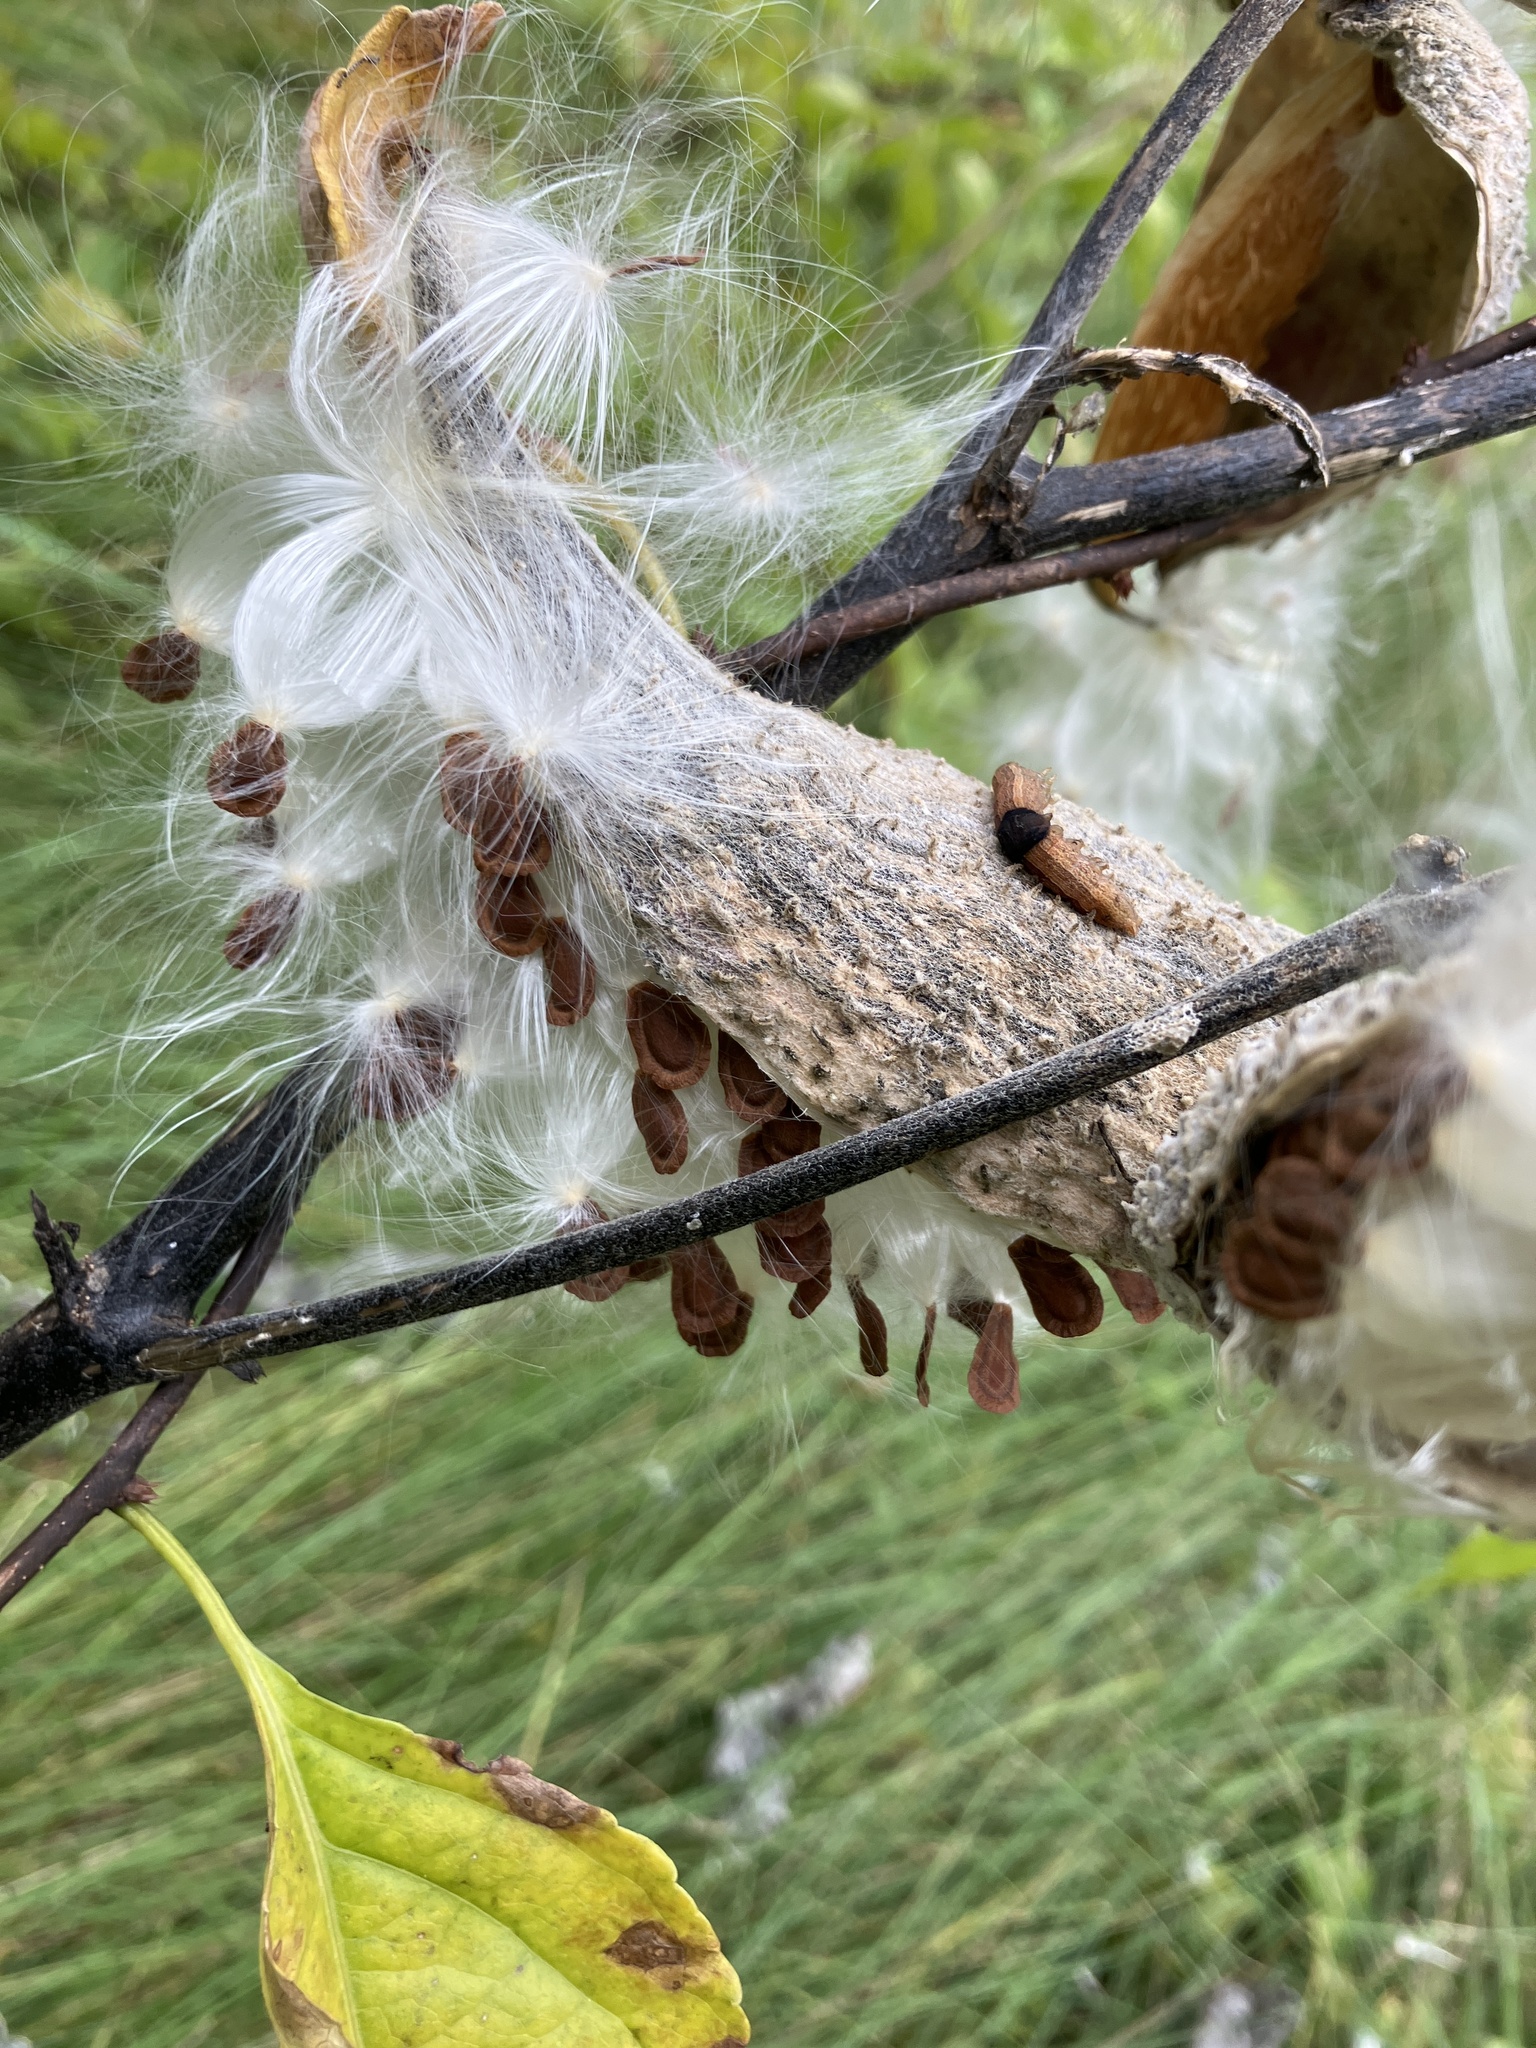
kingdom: Plantae
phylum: Tracheophyta
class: Magnoliopsida
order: Gentianales
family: Apocynaceae
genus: Asclepias
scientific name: Asclepias syriaca
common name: Common milkweed
